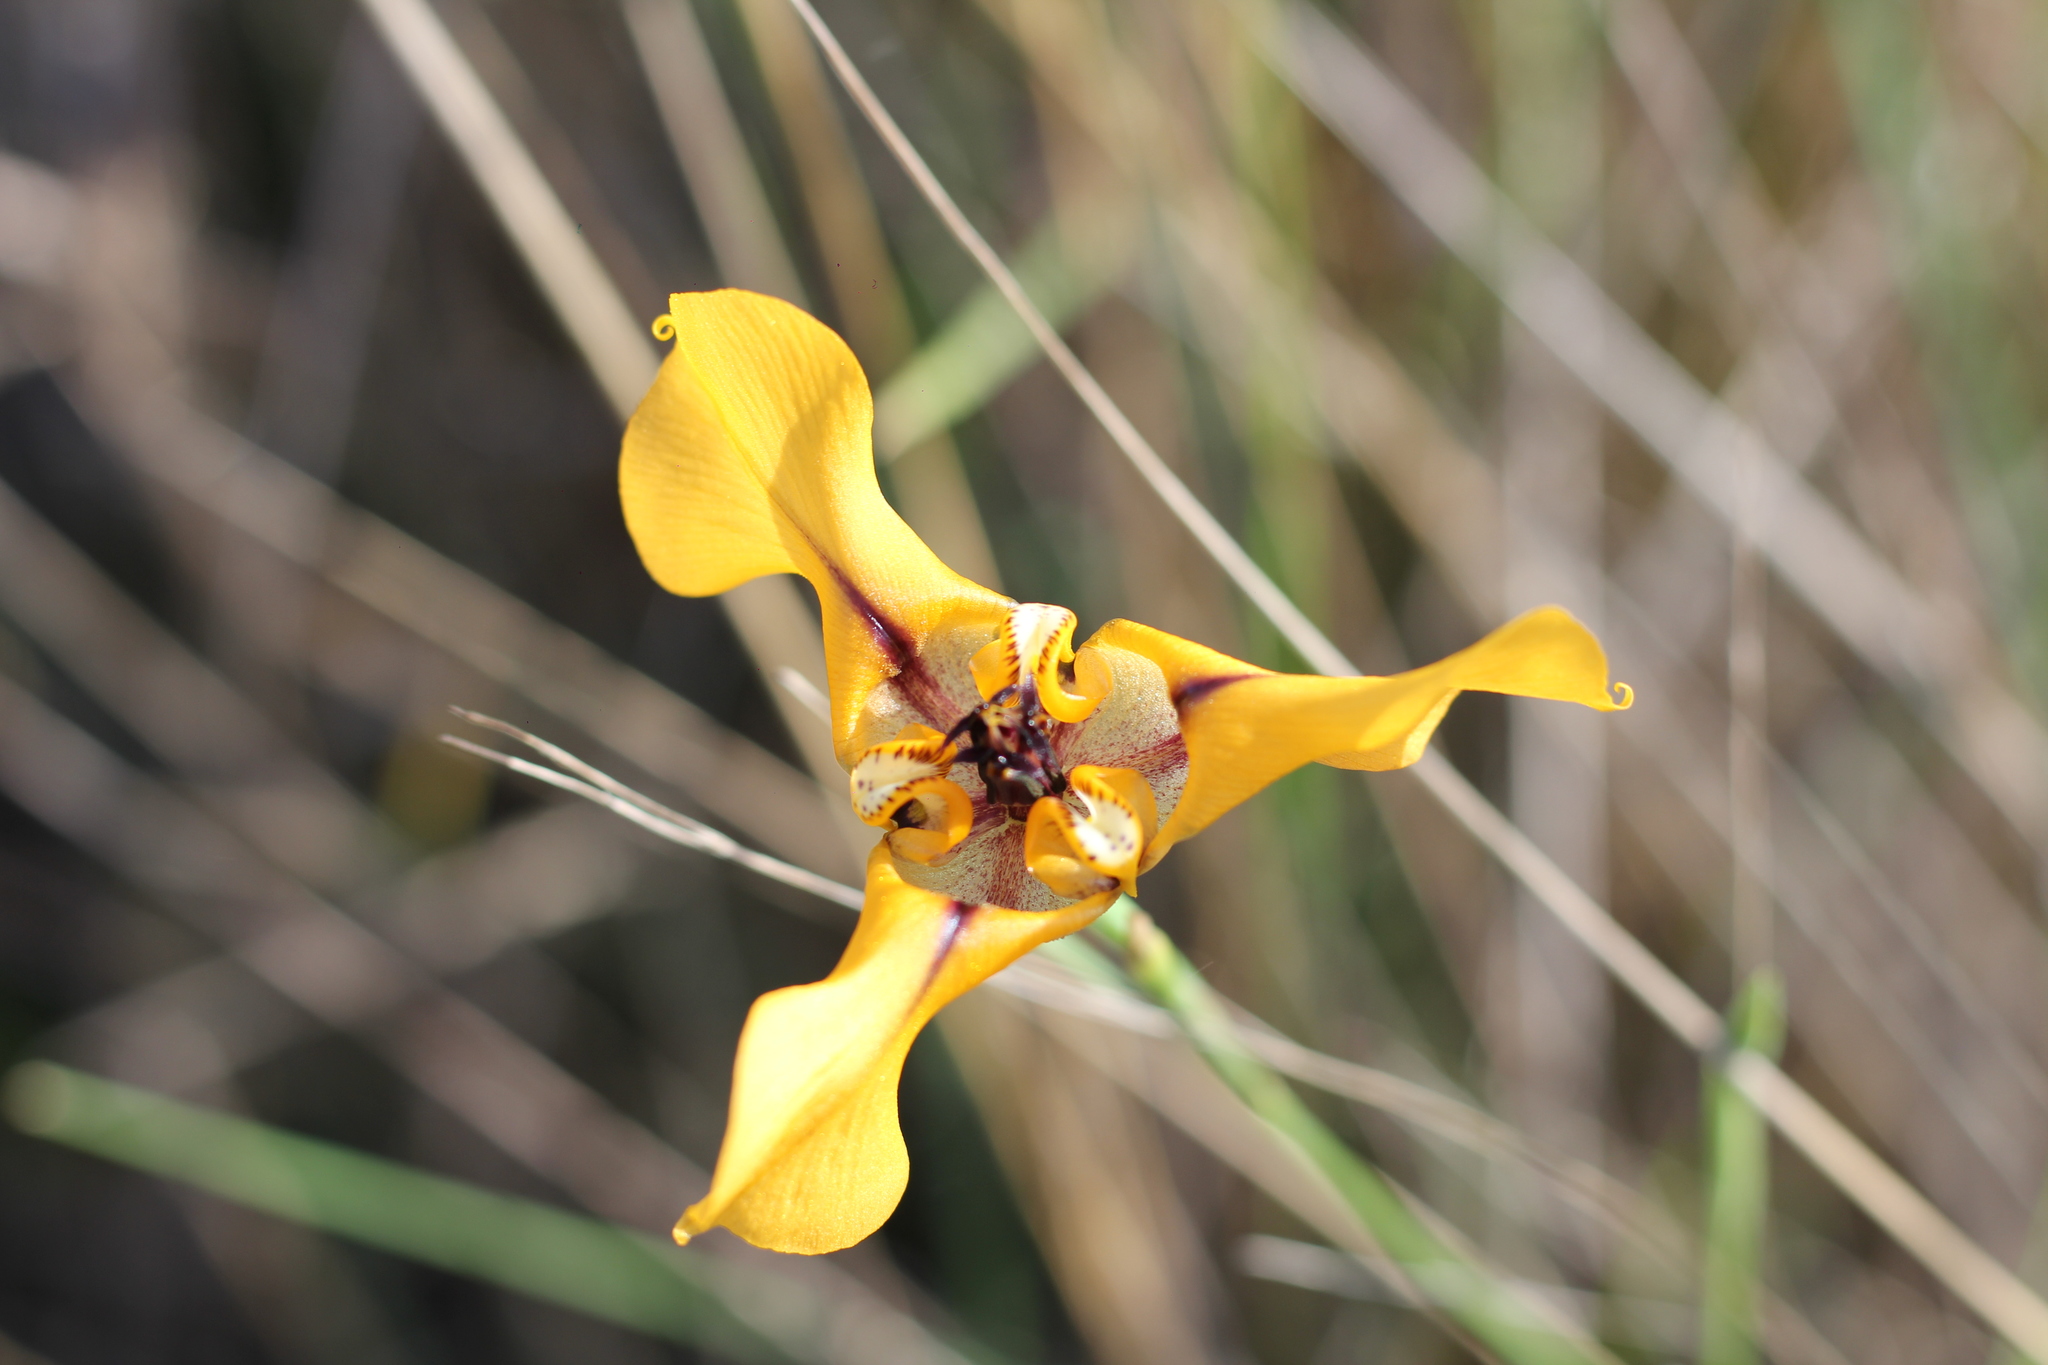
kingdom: Plantae
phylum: Tracheophyta
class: Liliopsida
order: Asparagales
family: Iridaceae
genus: Cypella
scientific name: Cypella herbertii
